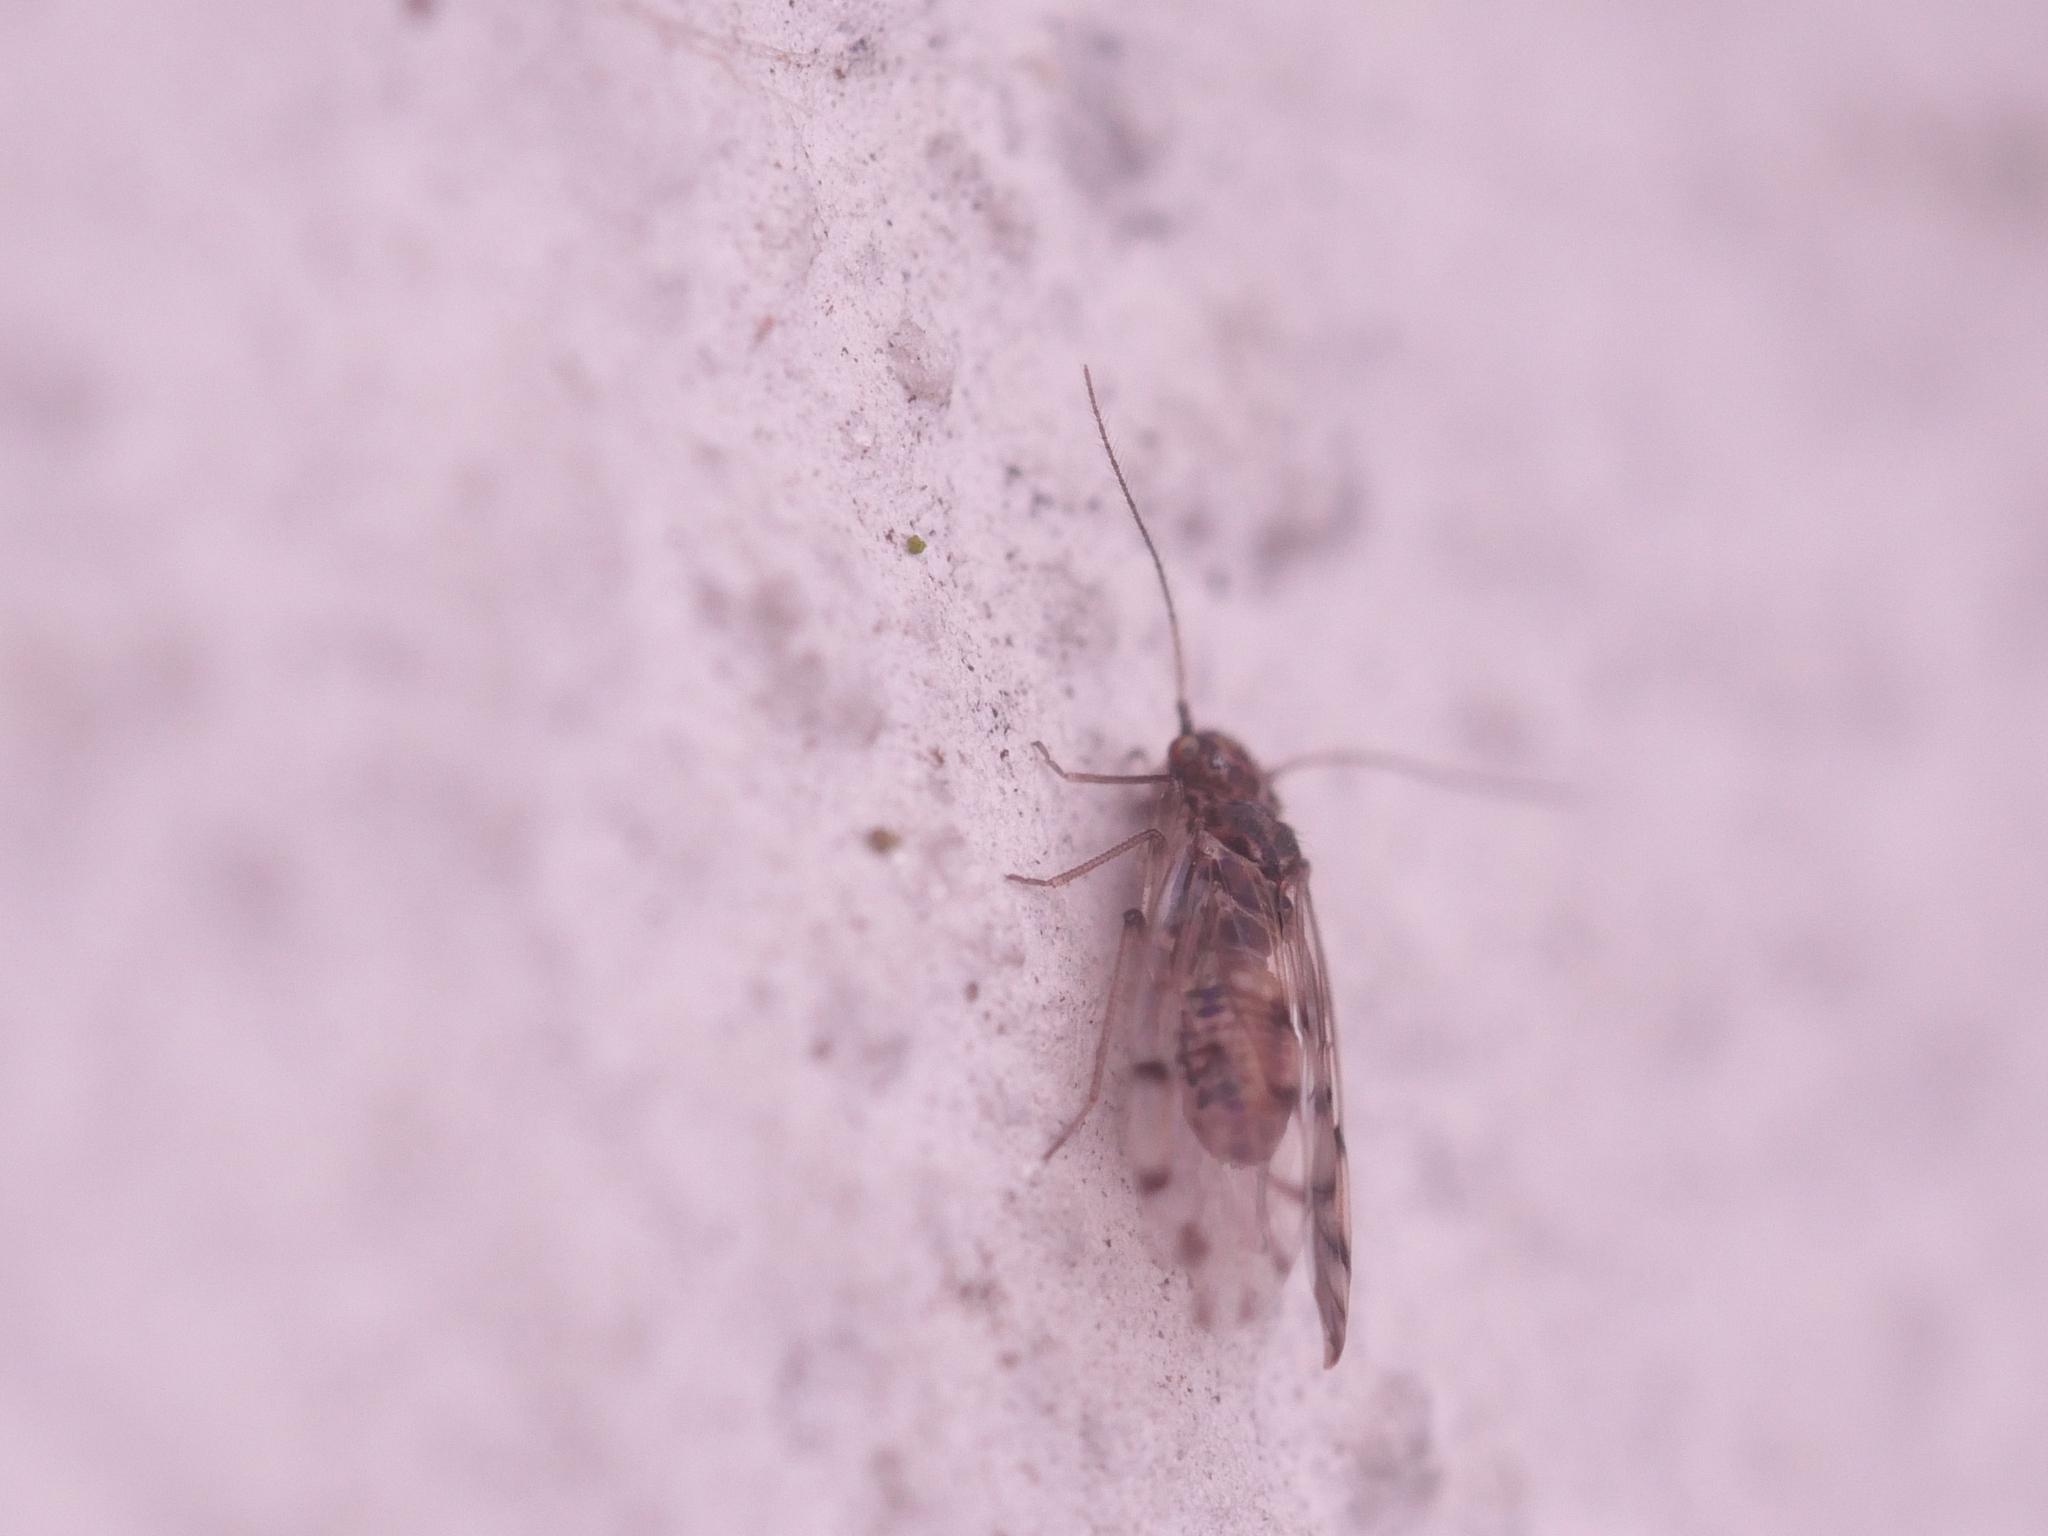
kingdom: Animalia
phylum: Arthropoda
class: Insecta
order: Psocodea
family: Ectopsocidae
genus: Ectopsocus
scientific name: Ectopsocus petersi
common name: Medium-sized bark louse
